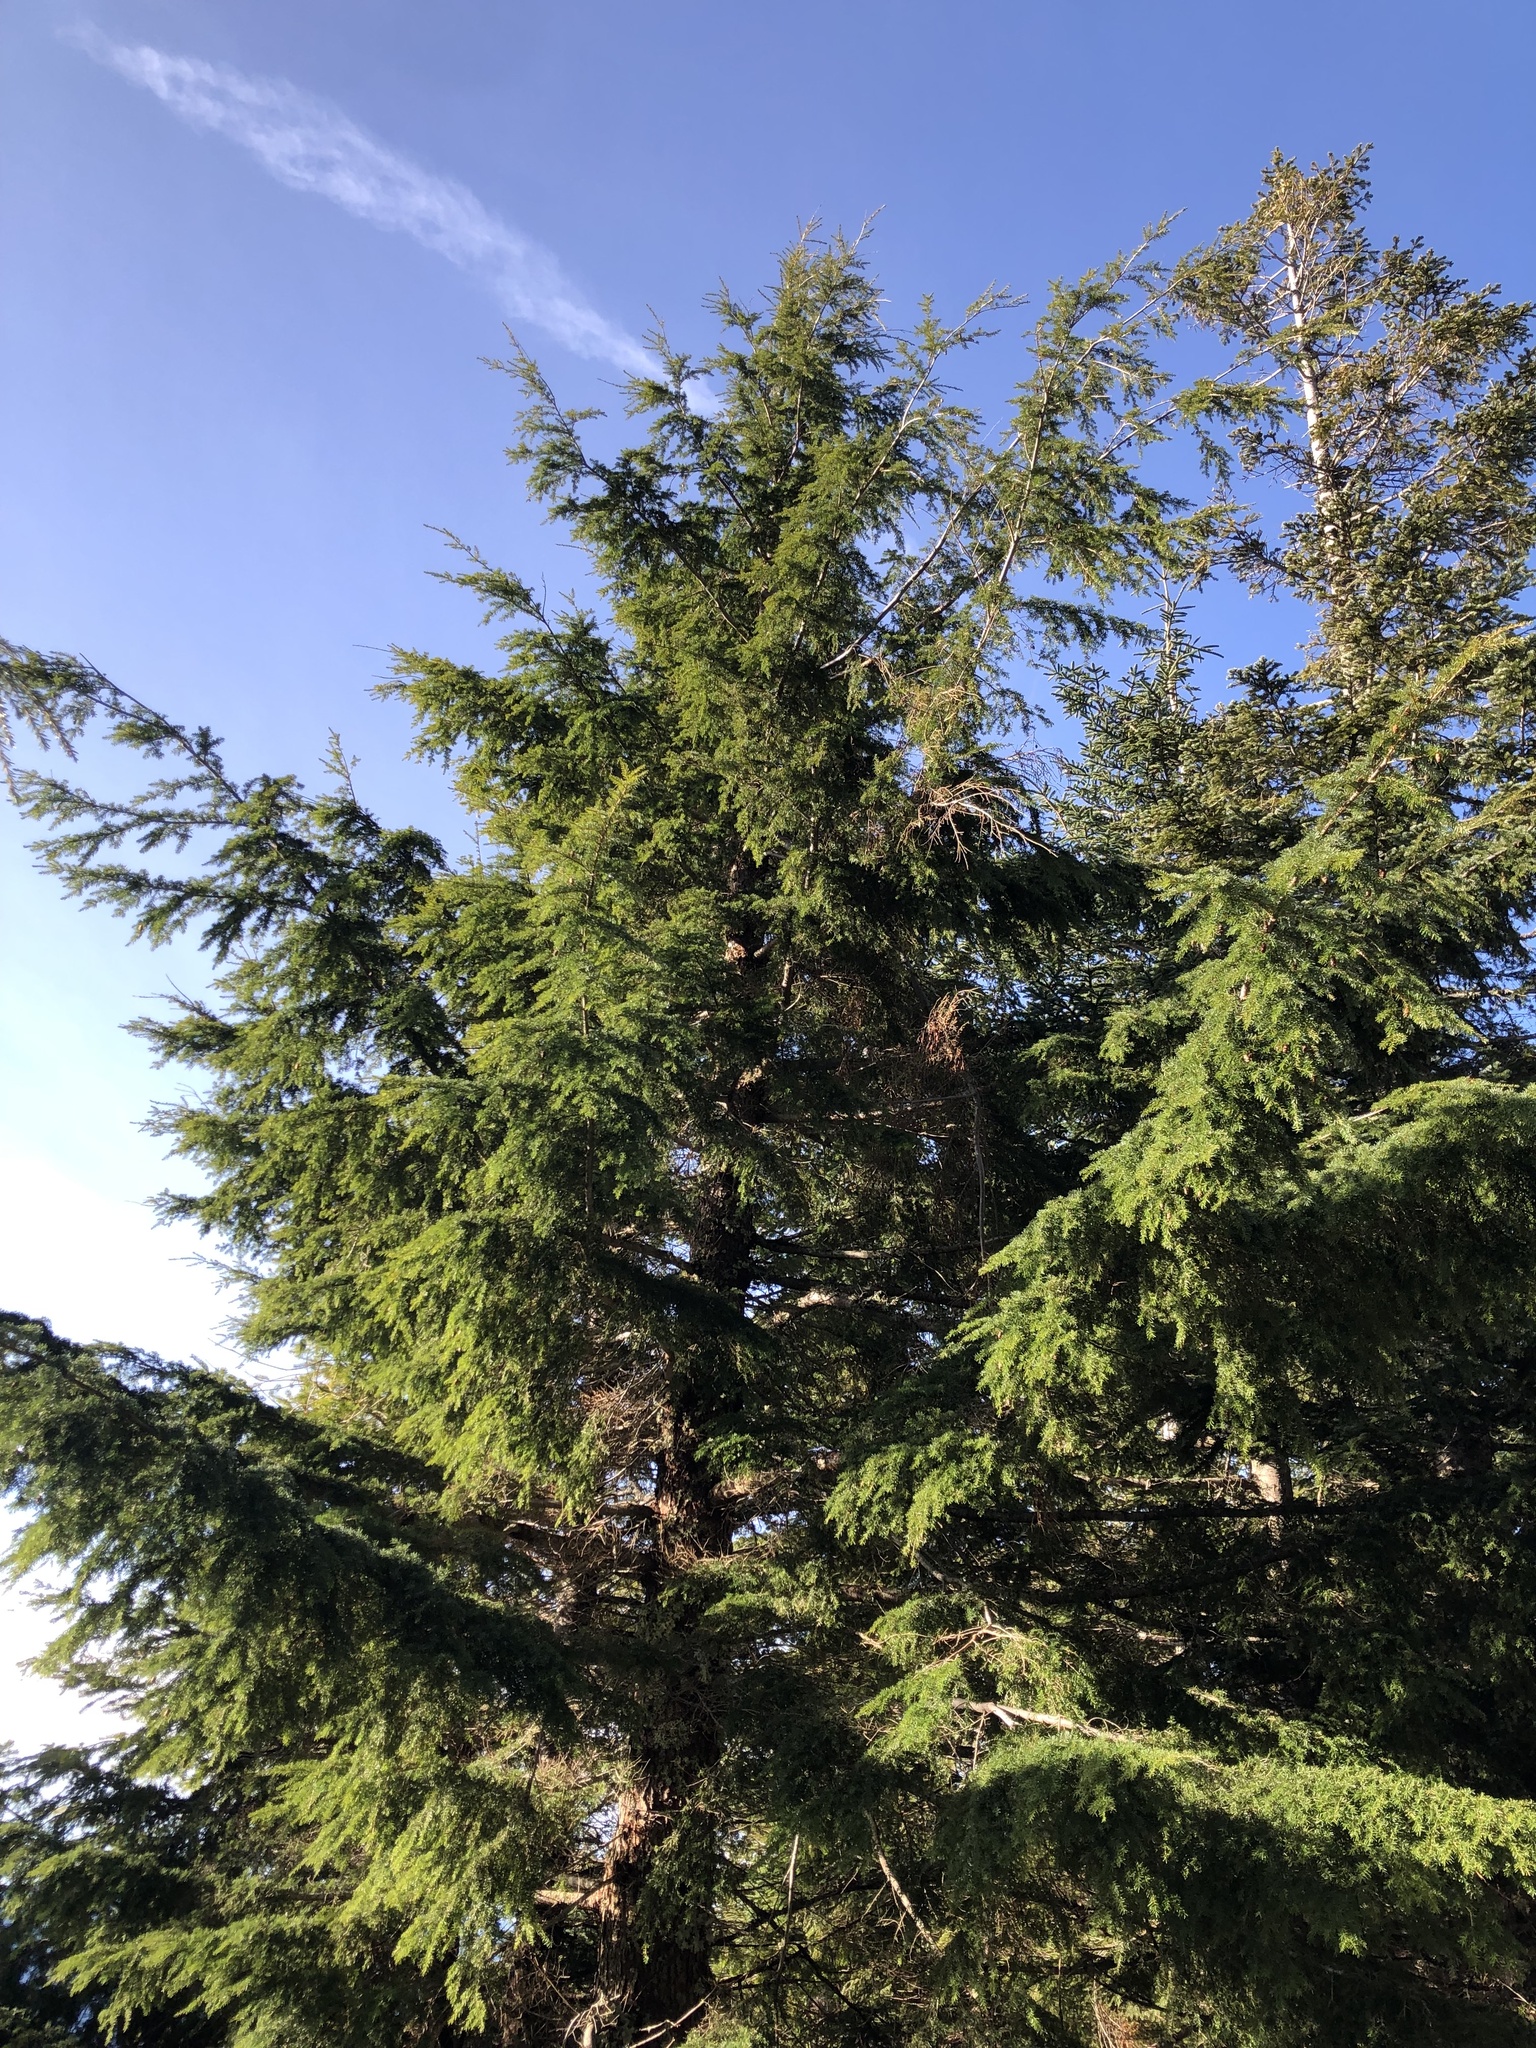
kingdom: Plantae
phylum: Tracheophyta
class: Pinopsida
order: Pinales
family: Pinaceae
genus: Tsuga
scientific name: Tsuga heterophylla
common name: Western hemlock
